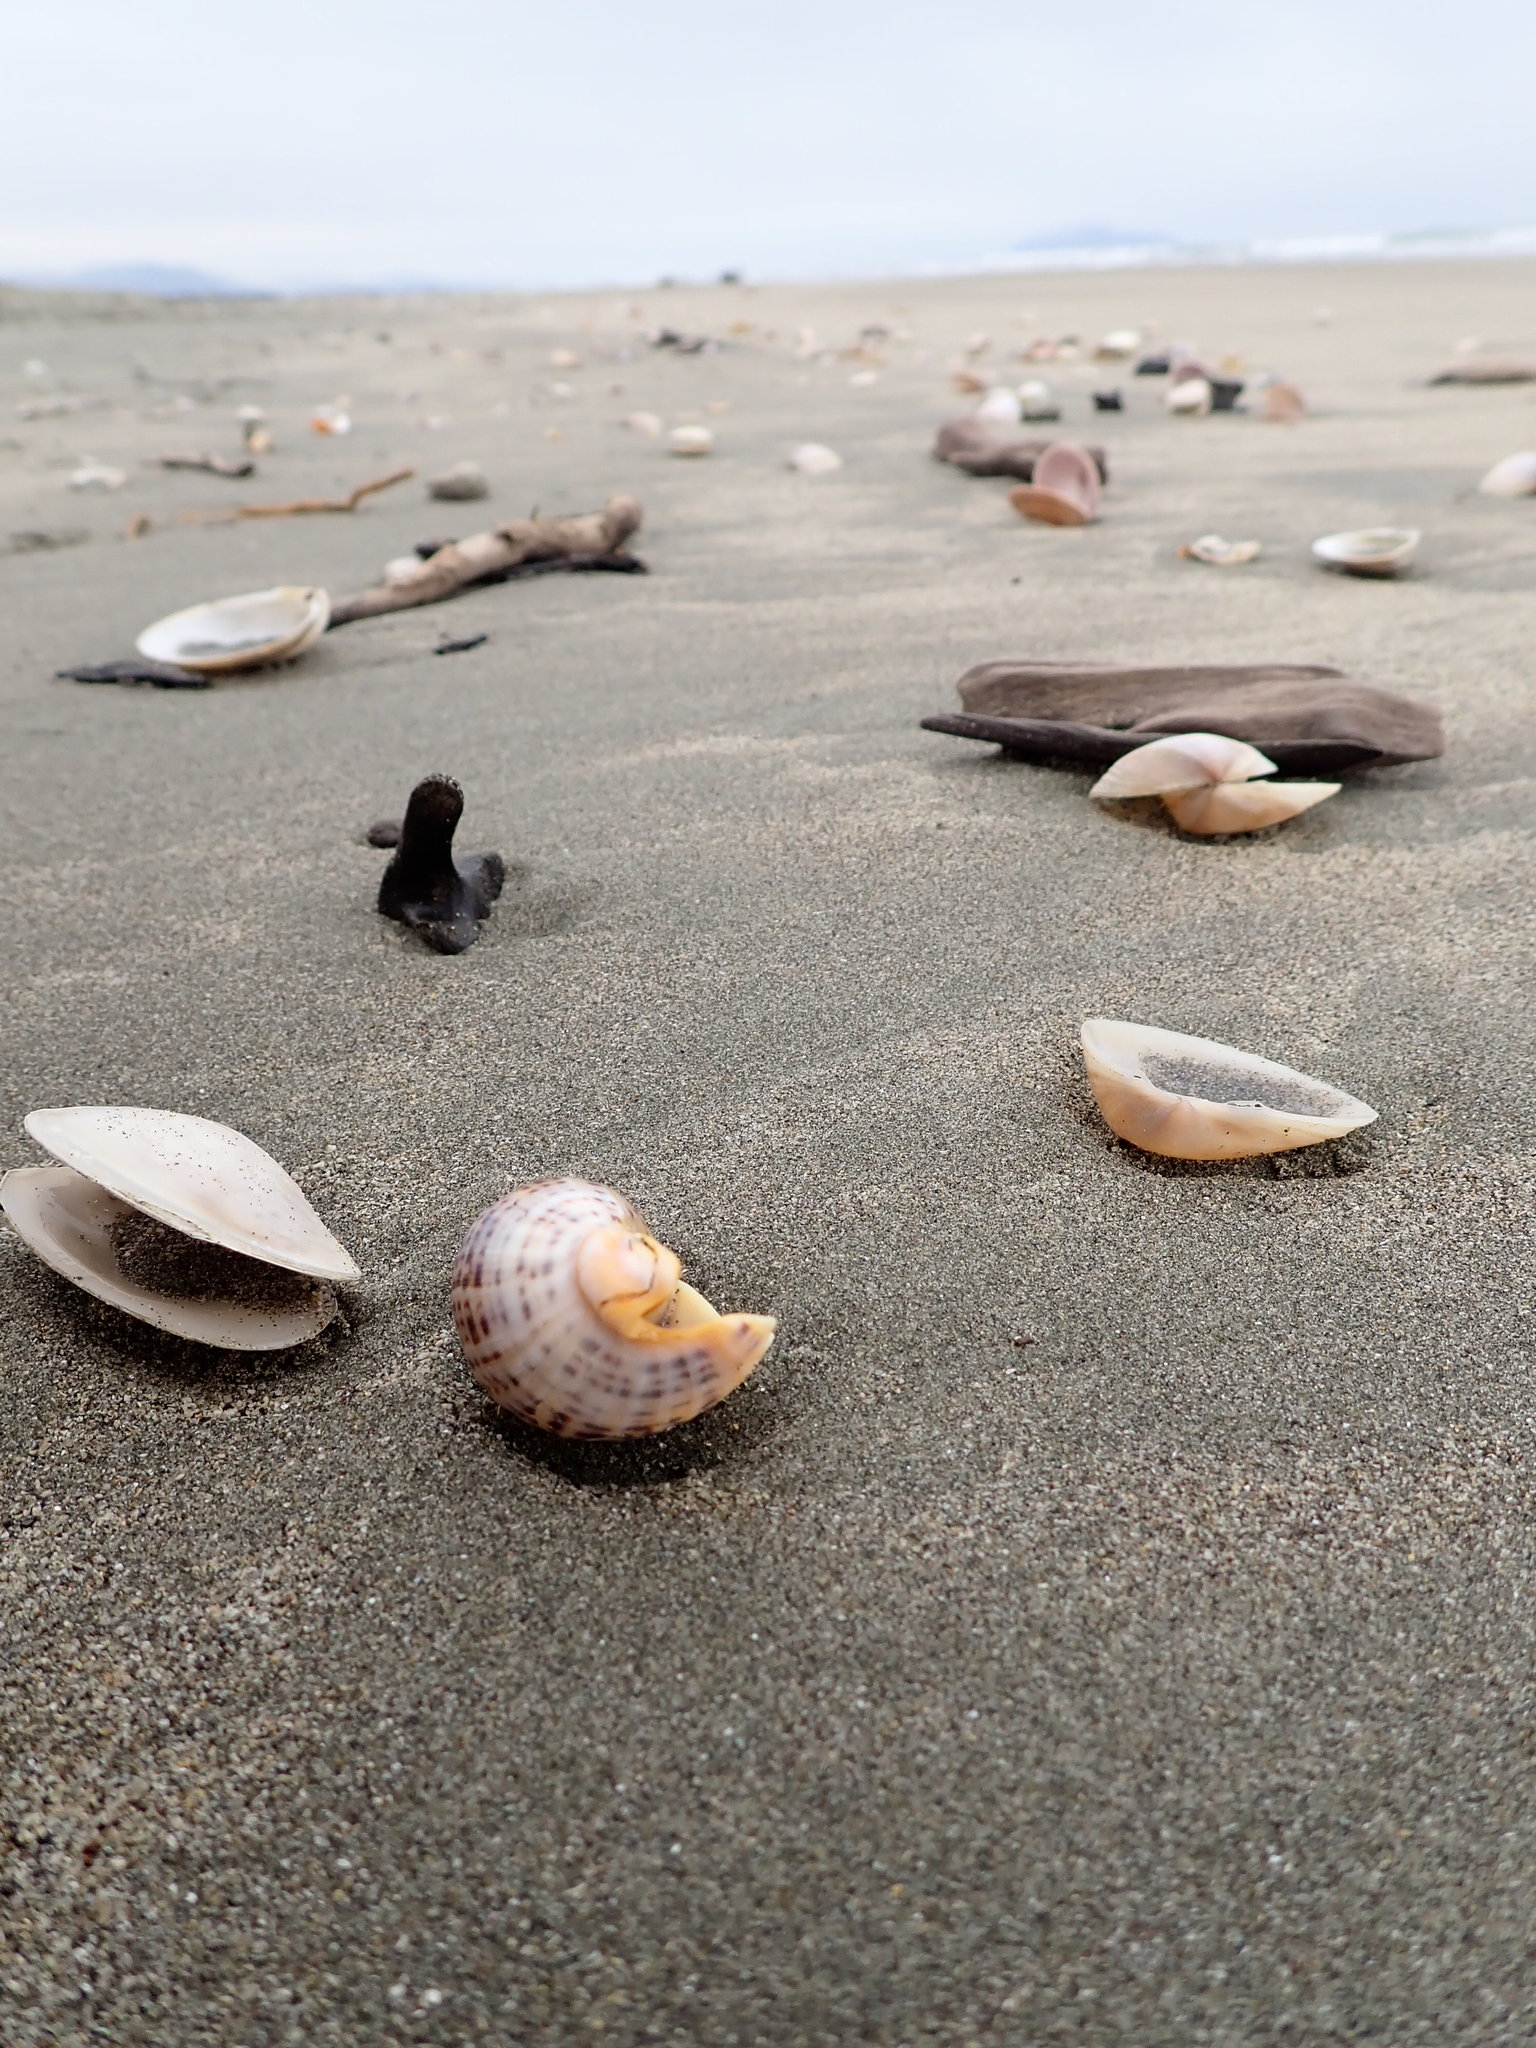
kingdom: Animalia
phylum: Mollusca
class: Gastropoda
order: Neogastropoda
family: Cominellidae
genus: Cominella
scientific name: Cominella adspersa
